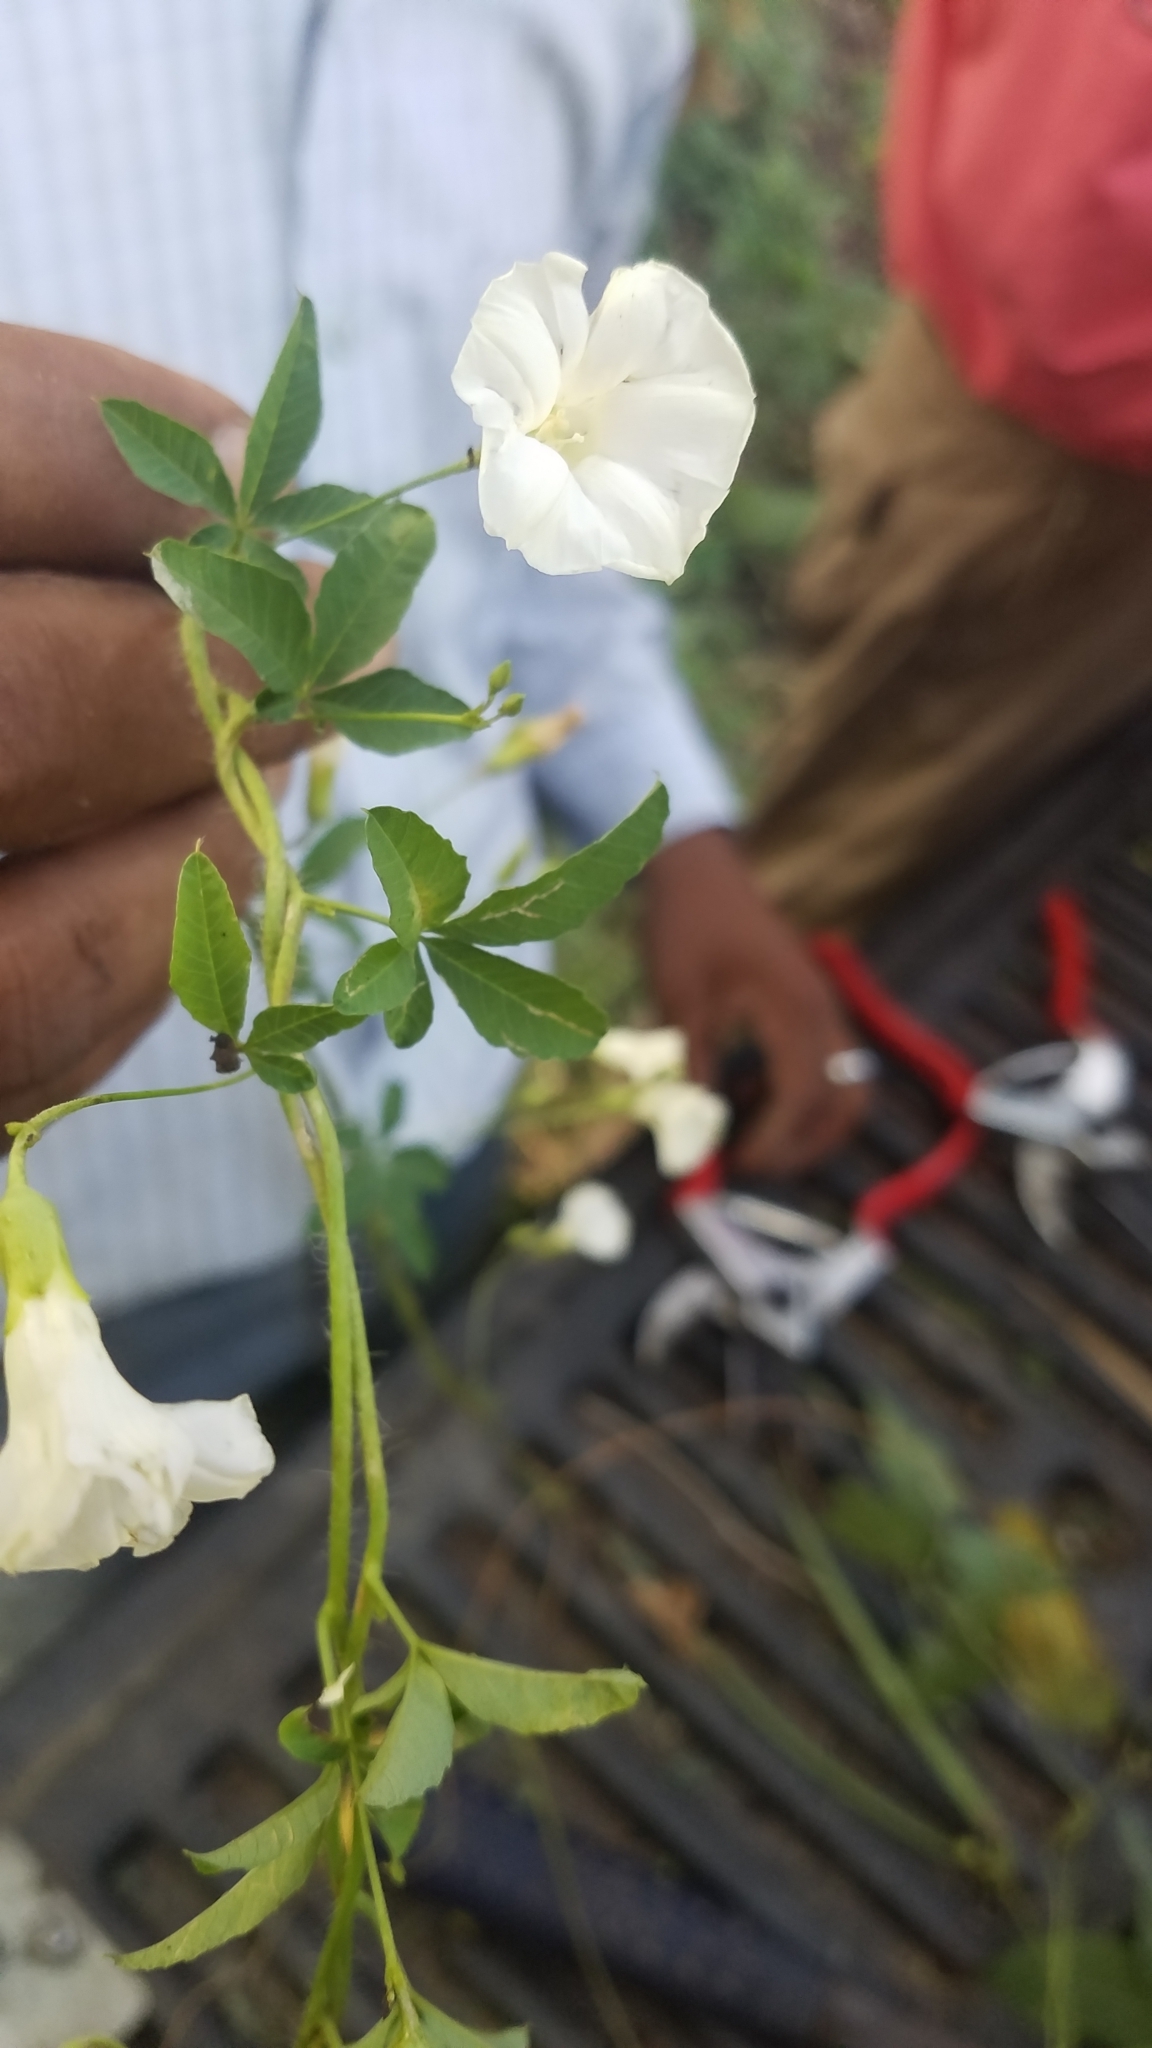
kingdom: Plantae
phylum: Tracheophyta
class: Magnoliopsida
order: Solanales
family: Convolvulaceae
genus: Distimake
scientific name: Distimake quinquefolius
